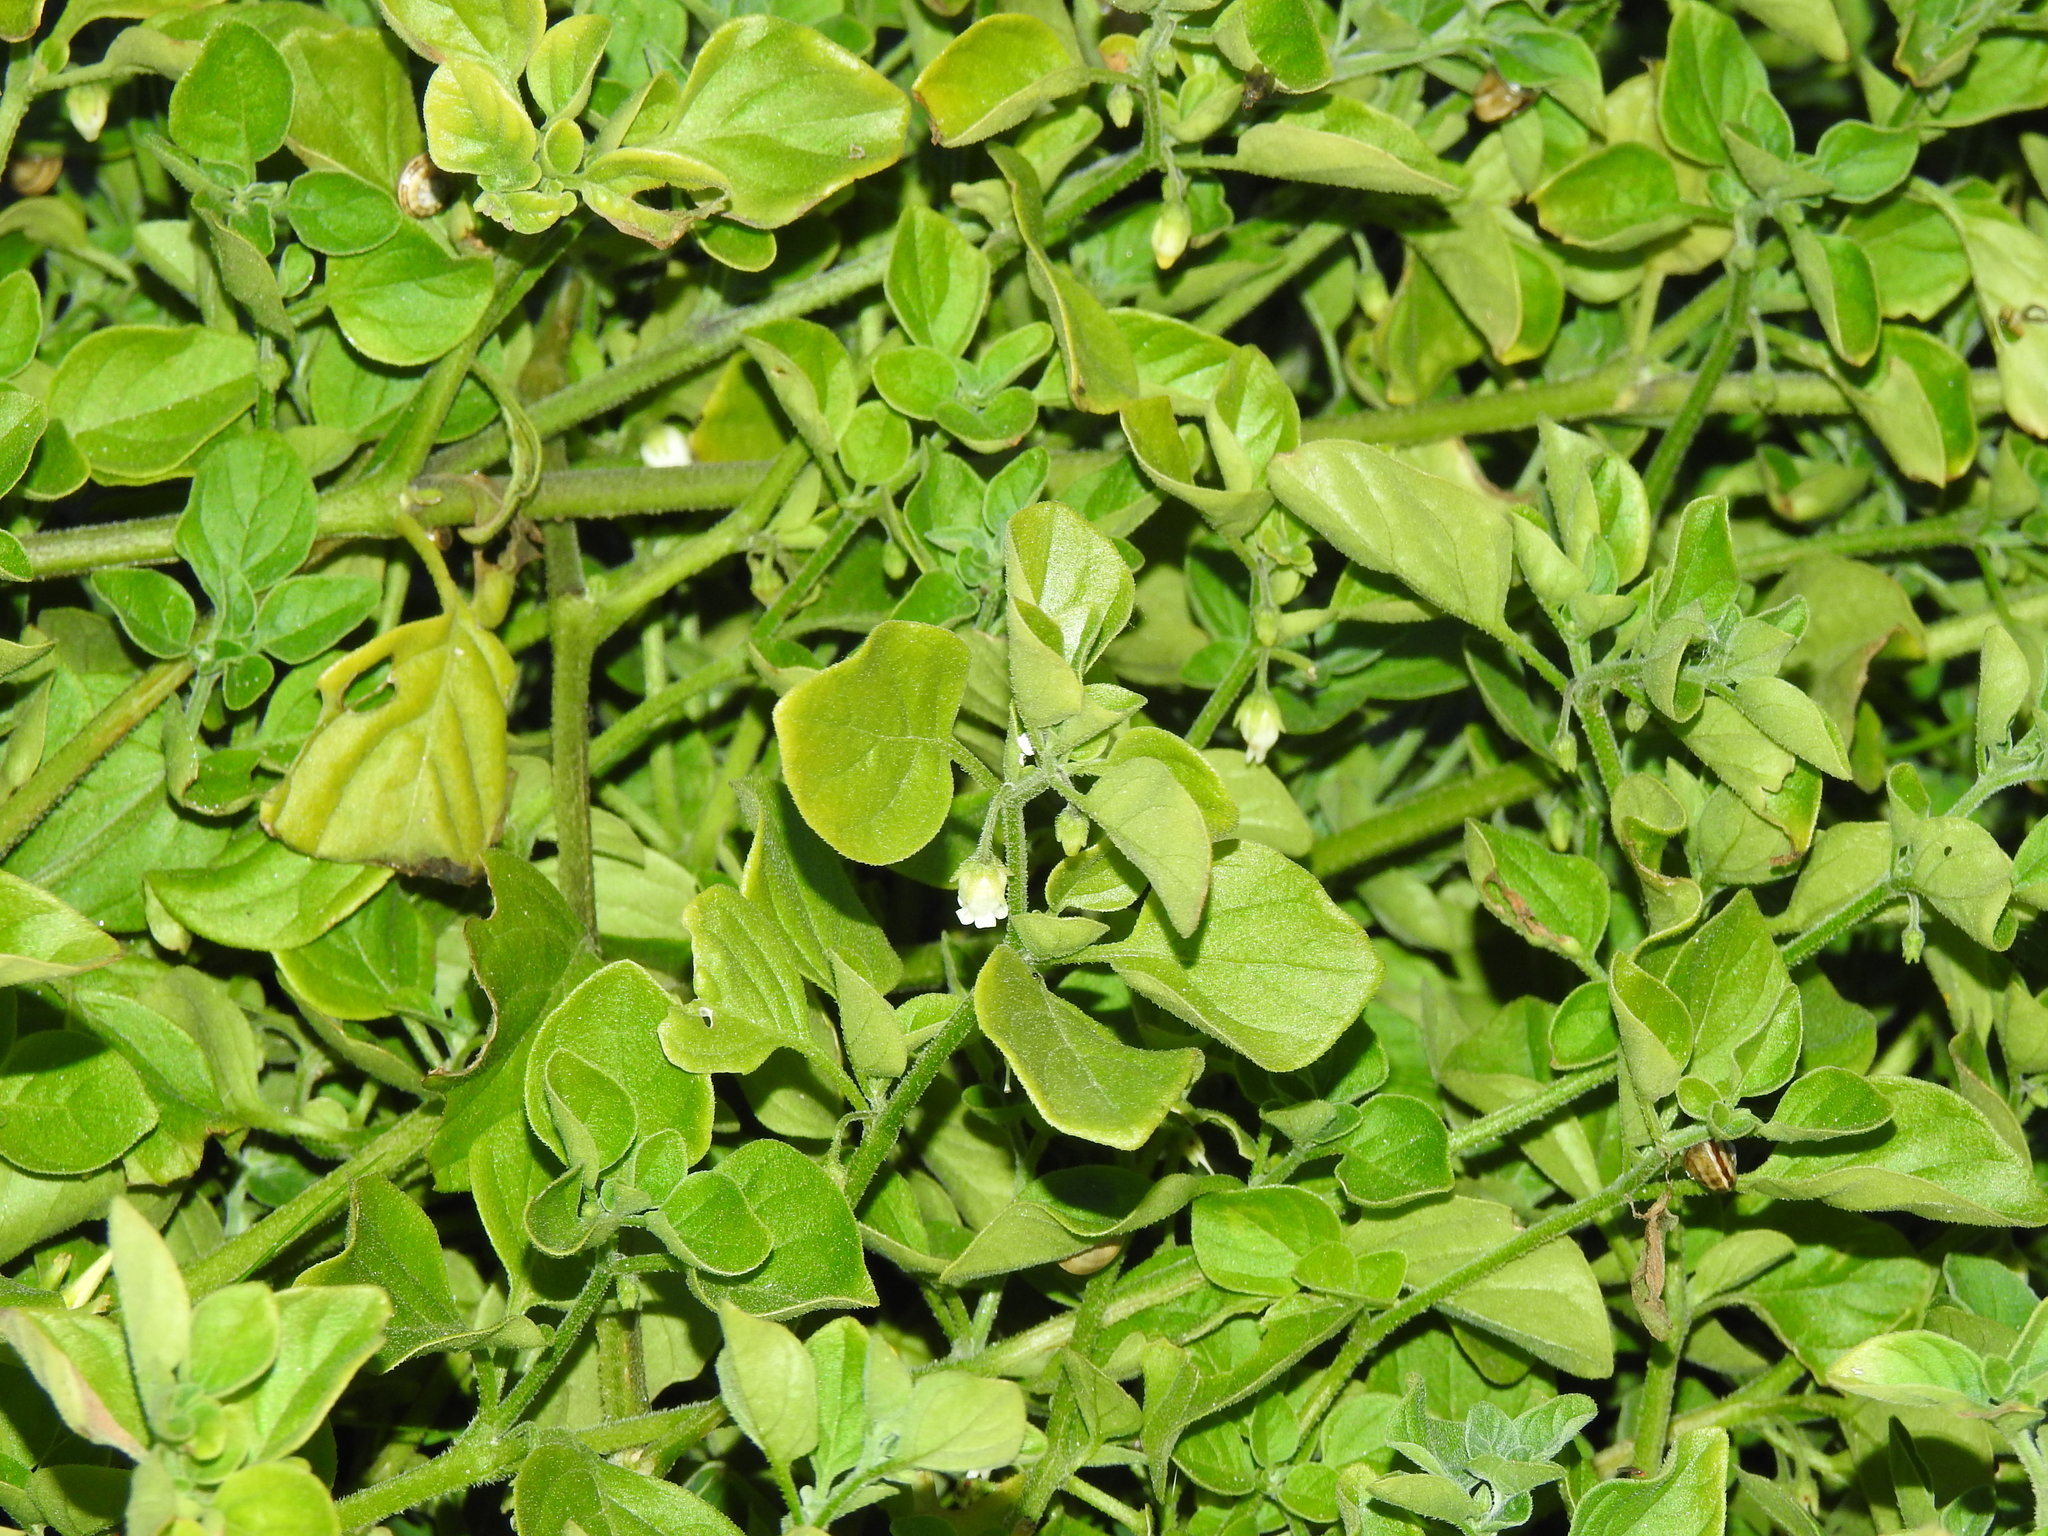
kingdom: Plantae
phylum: Tracheophyta
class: Magnoliopsida
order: Solanales
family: Solanaceae
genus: Salpichroa
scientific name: Salpichroa origanifolia
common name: Lily-of-the-valley-vine
